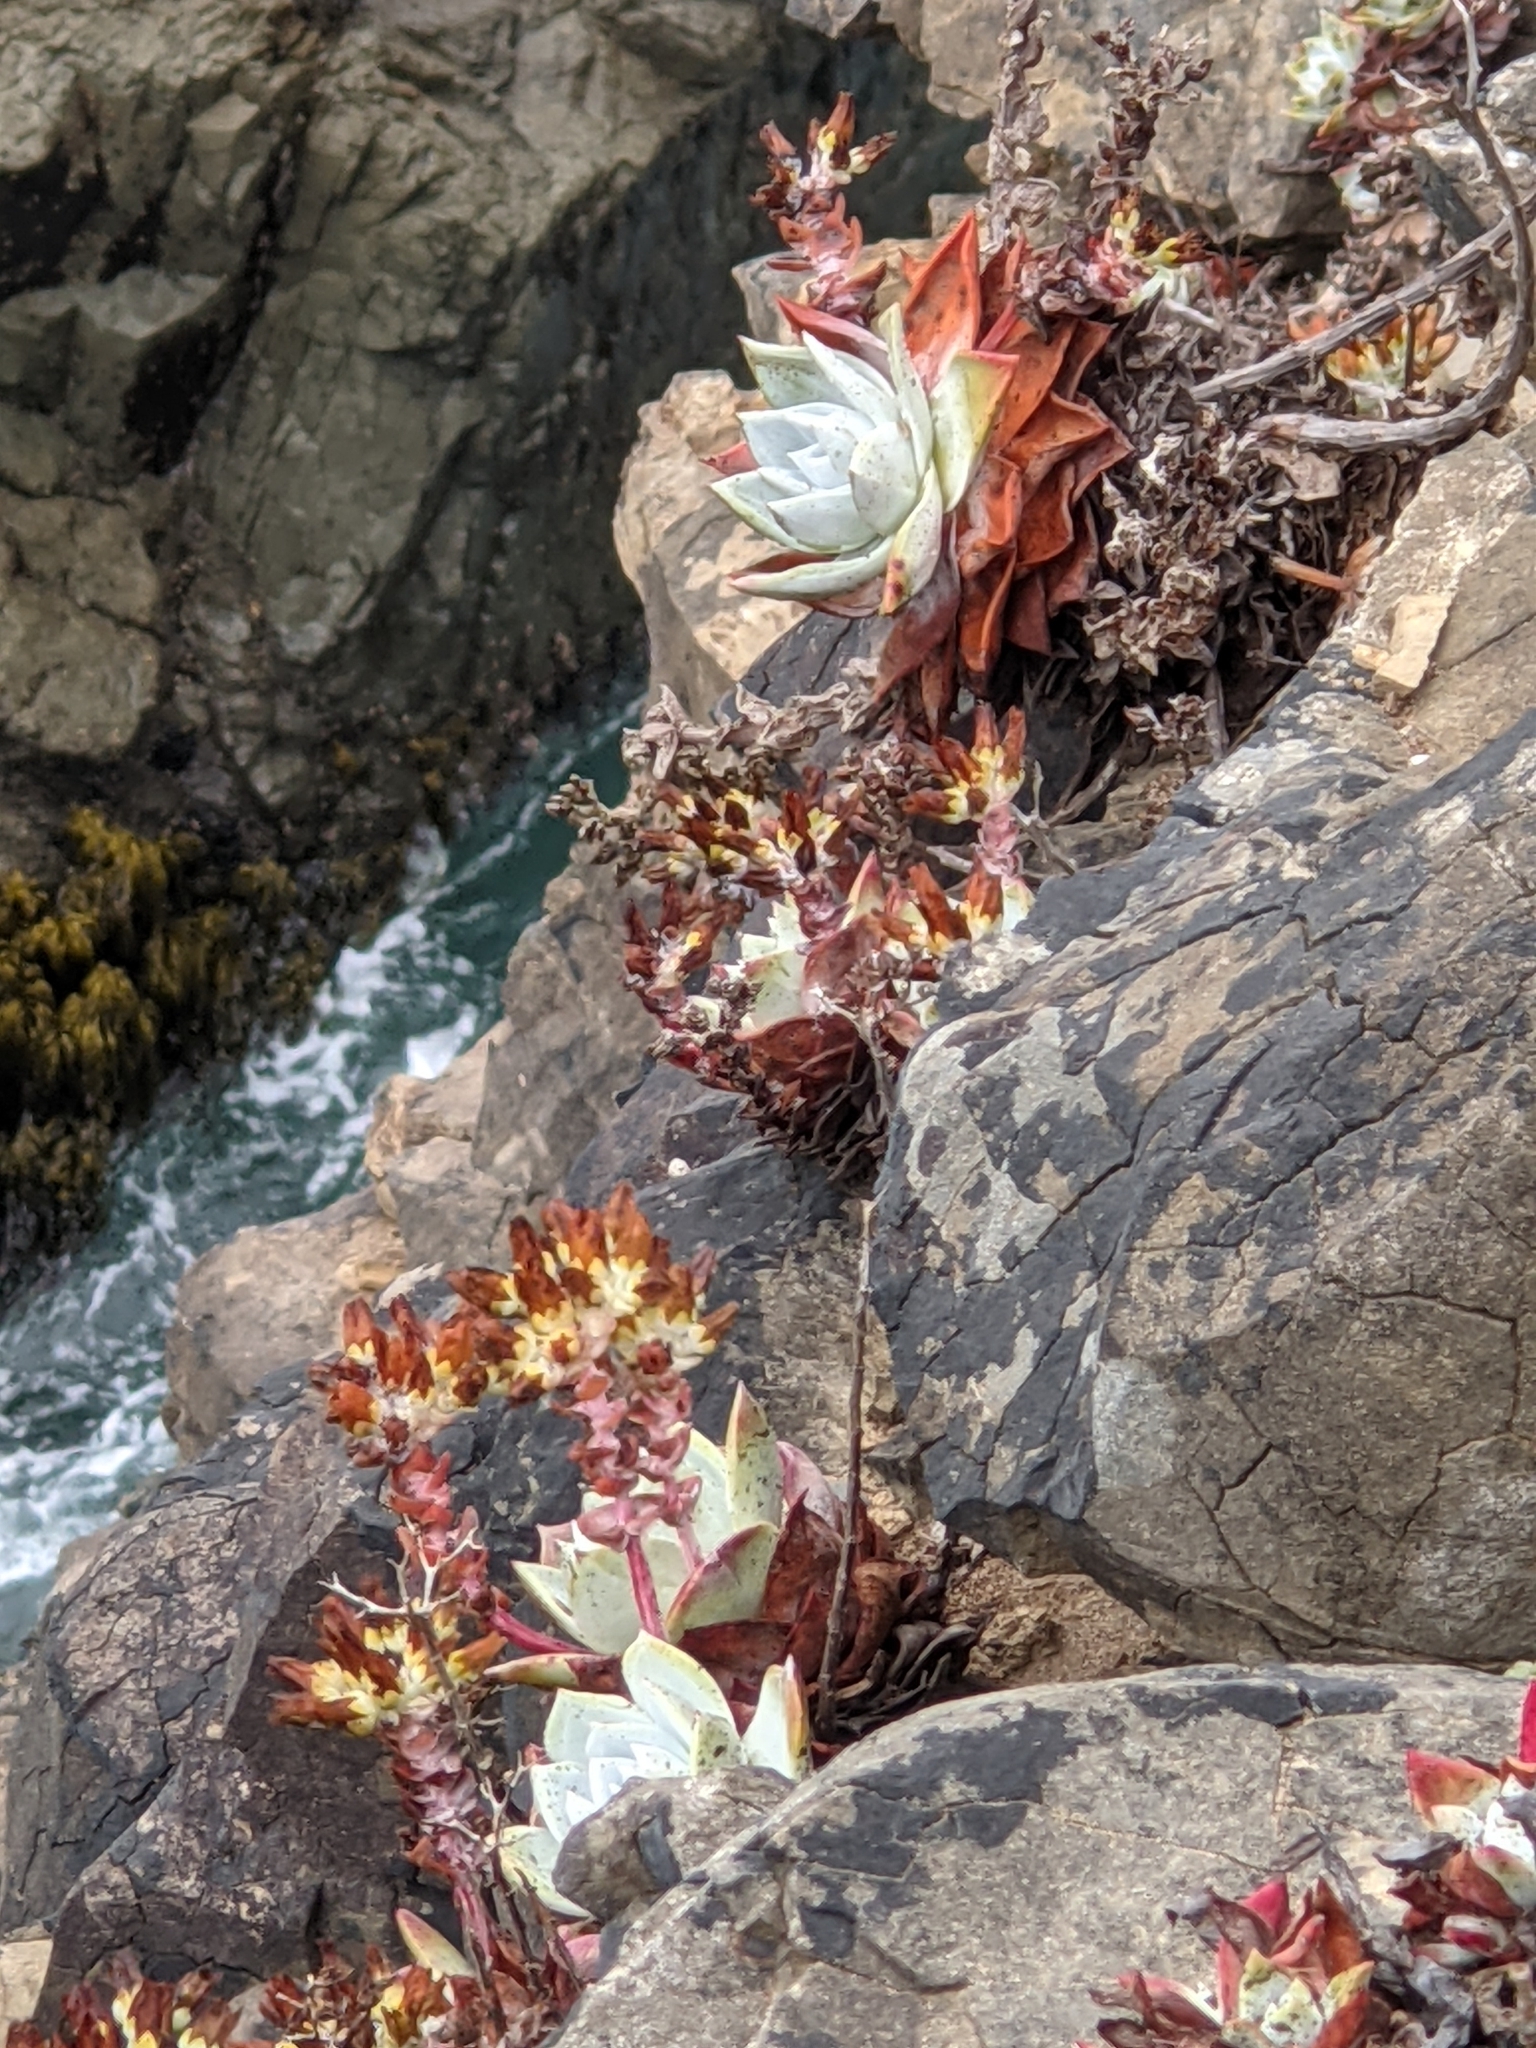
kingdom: Plantae
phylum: Tracheophyta
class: Magnoliopsida
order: Saxifragales
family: Crassulaceae
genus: Dudleya
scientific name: Dudleya farinosa
